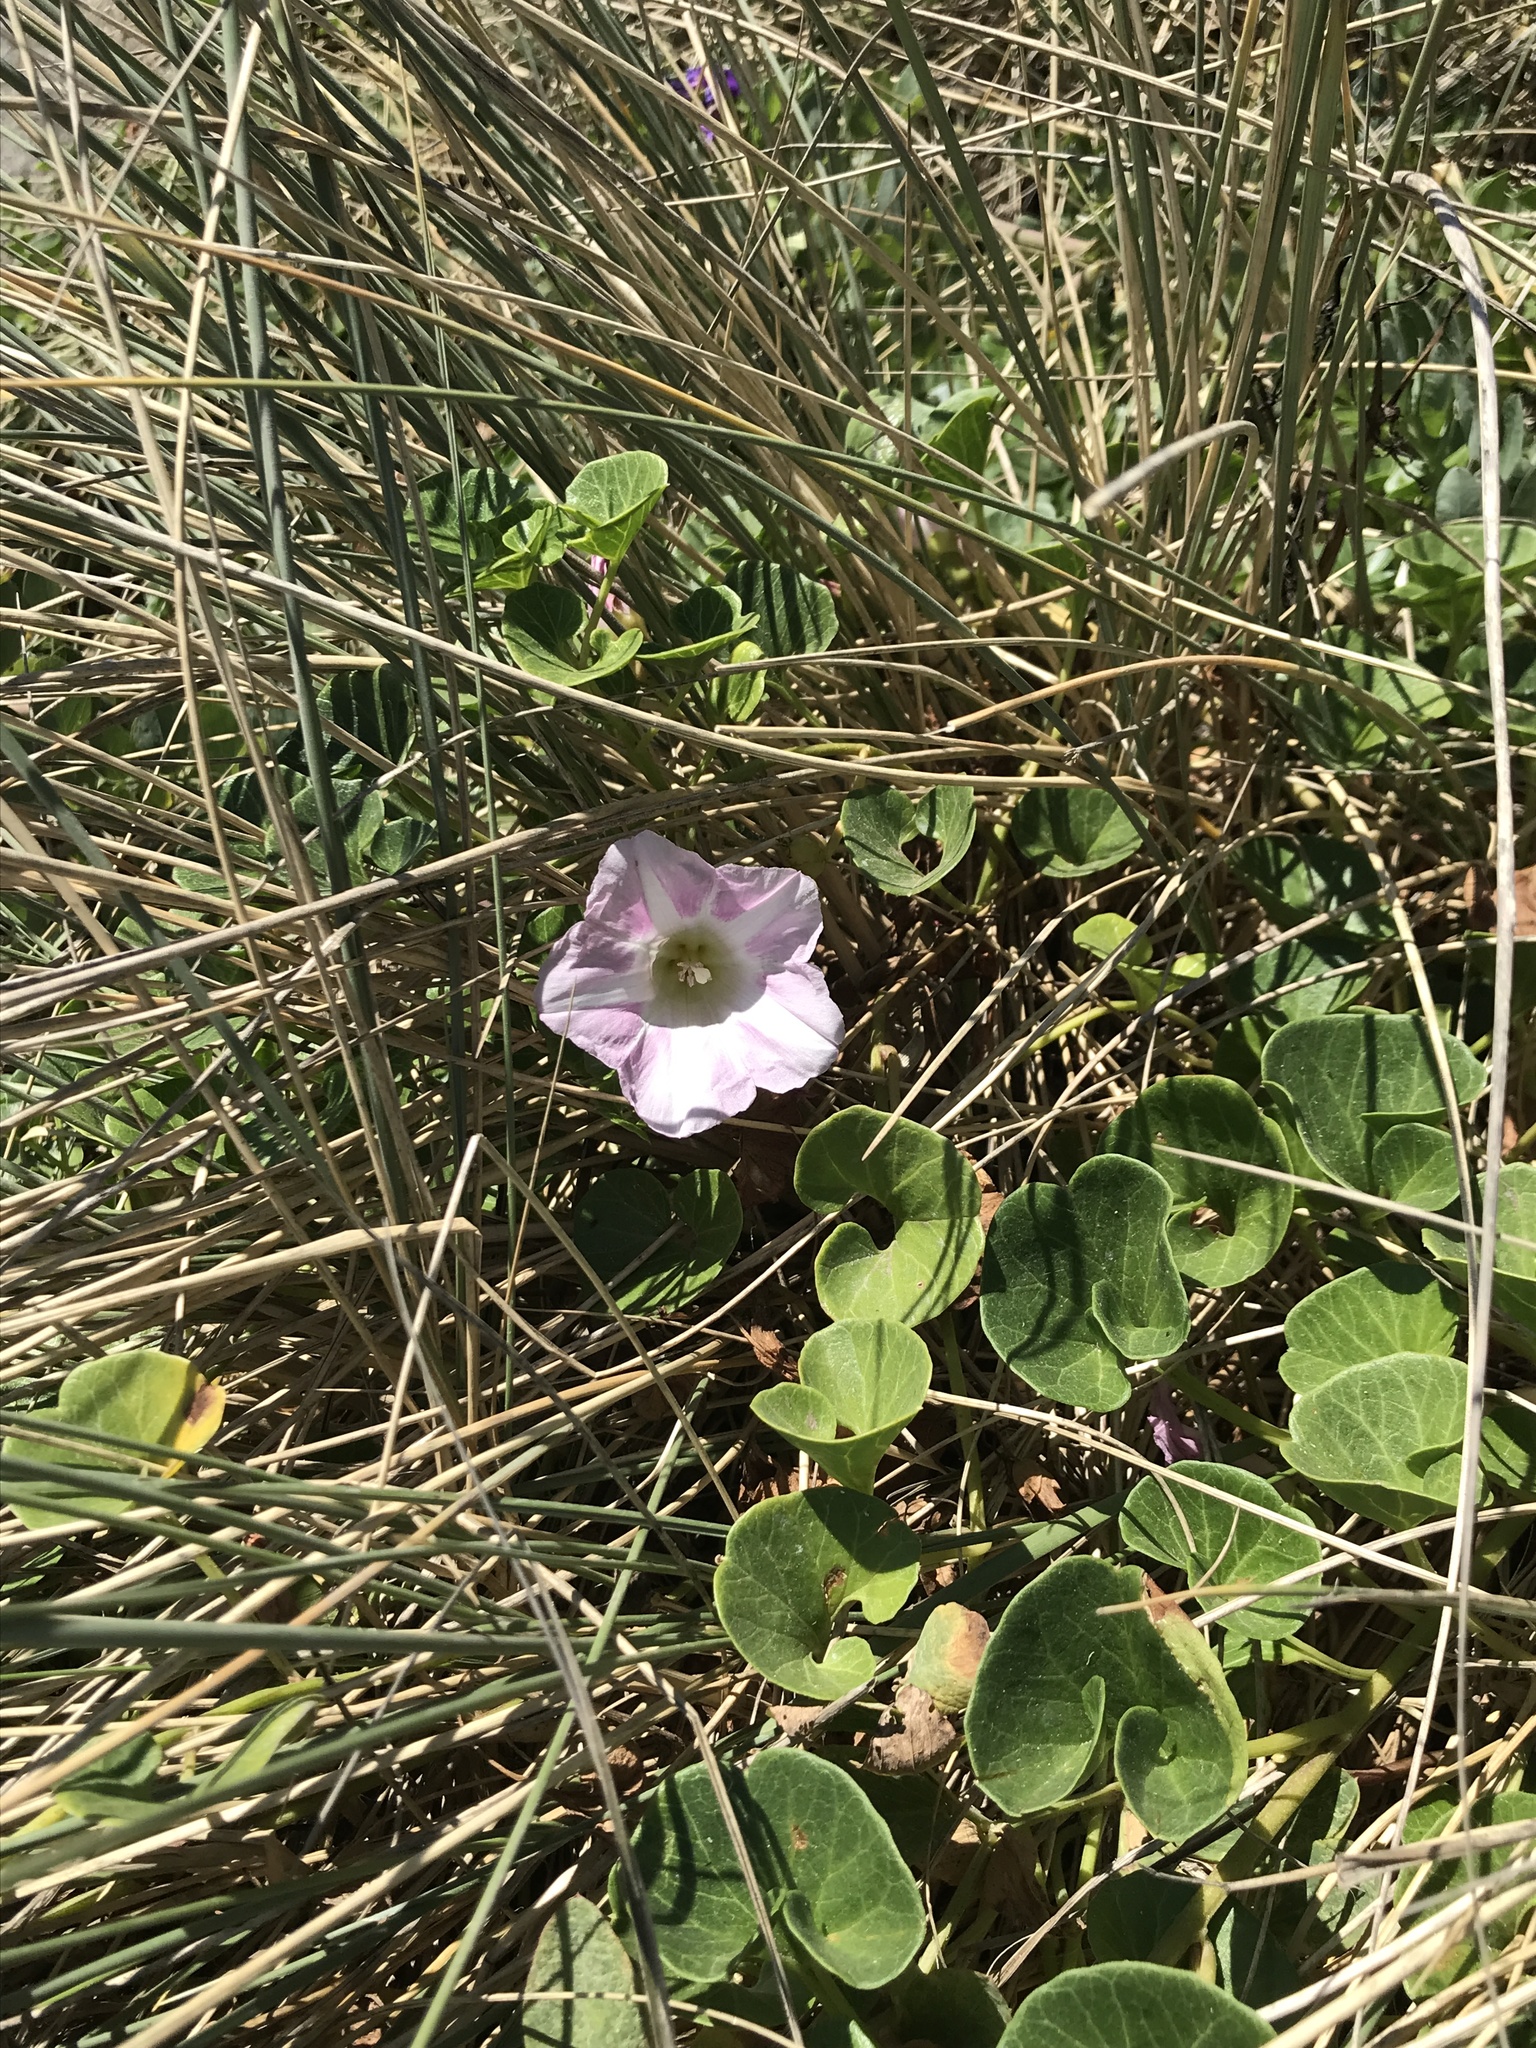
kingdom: Plantae
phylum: Tracheophyta
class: Magnoliopsida
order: Solanales
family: Convolvulaceae
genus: Calystegia
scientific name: Calystegia soldanella
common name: Sea bindweed
